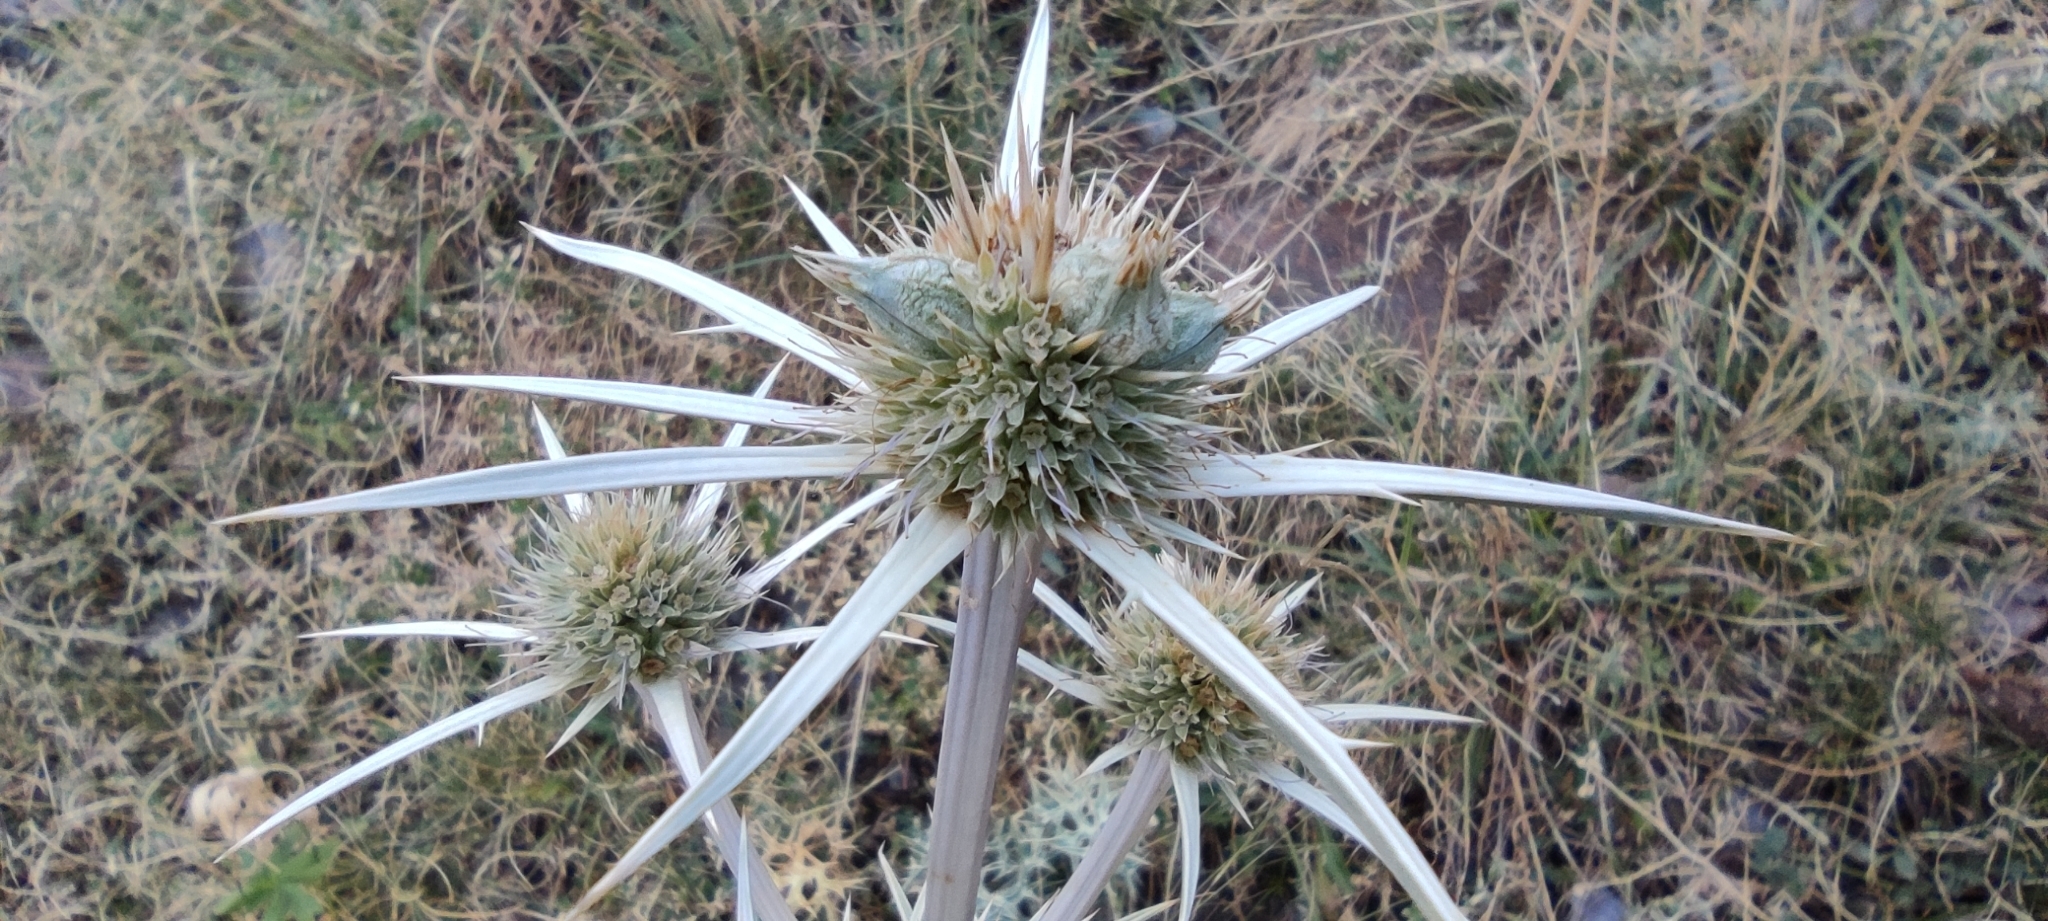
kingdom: Plantae
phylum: Tracheophyta
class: Magnoliopsida
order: Apiales
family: Apiaceae
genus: Eryngium
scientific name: Eryngium bourgatii
